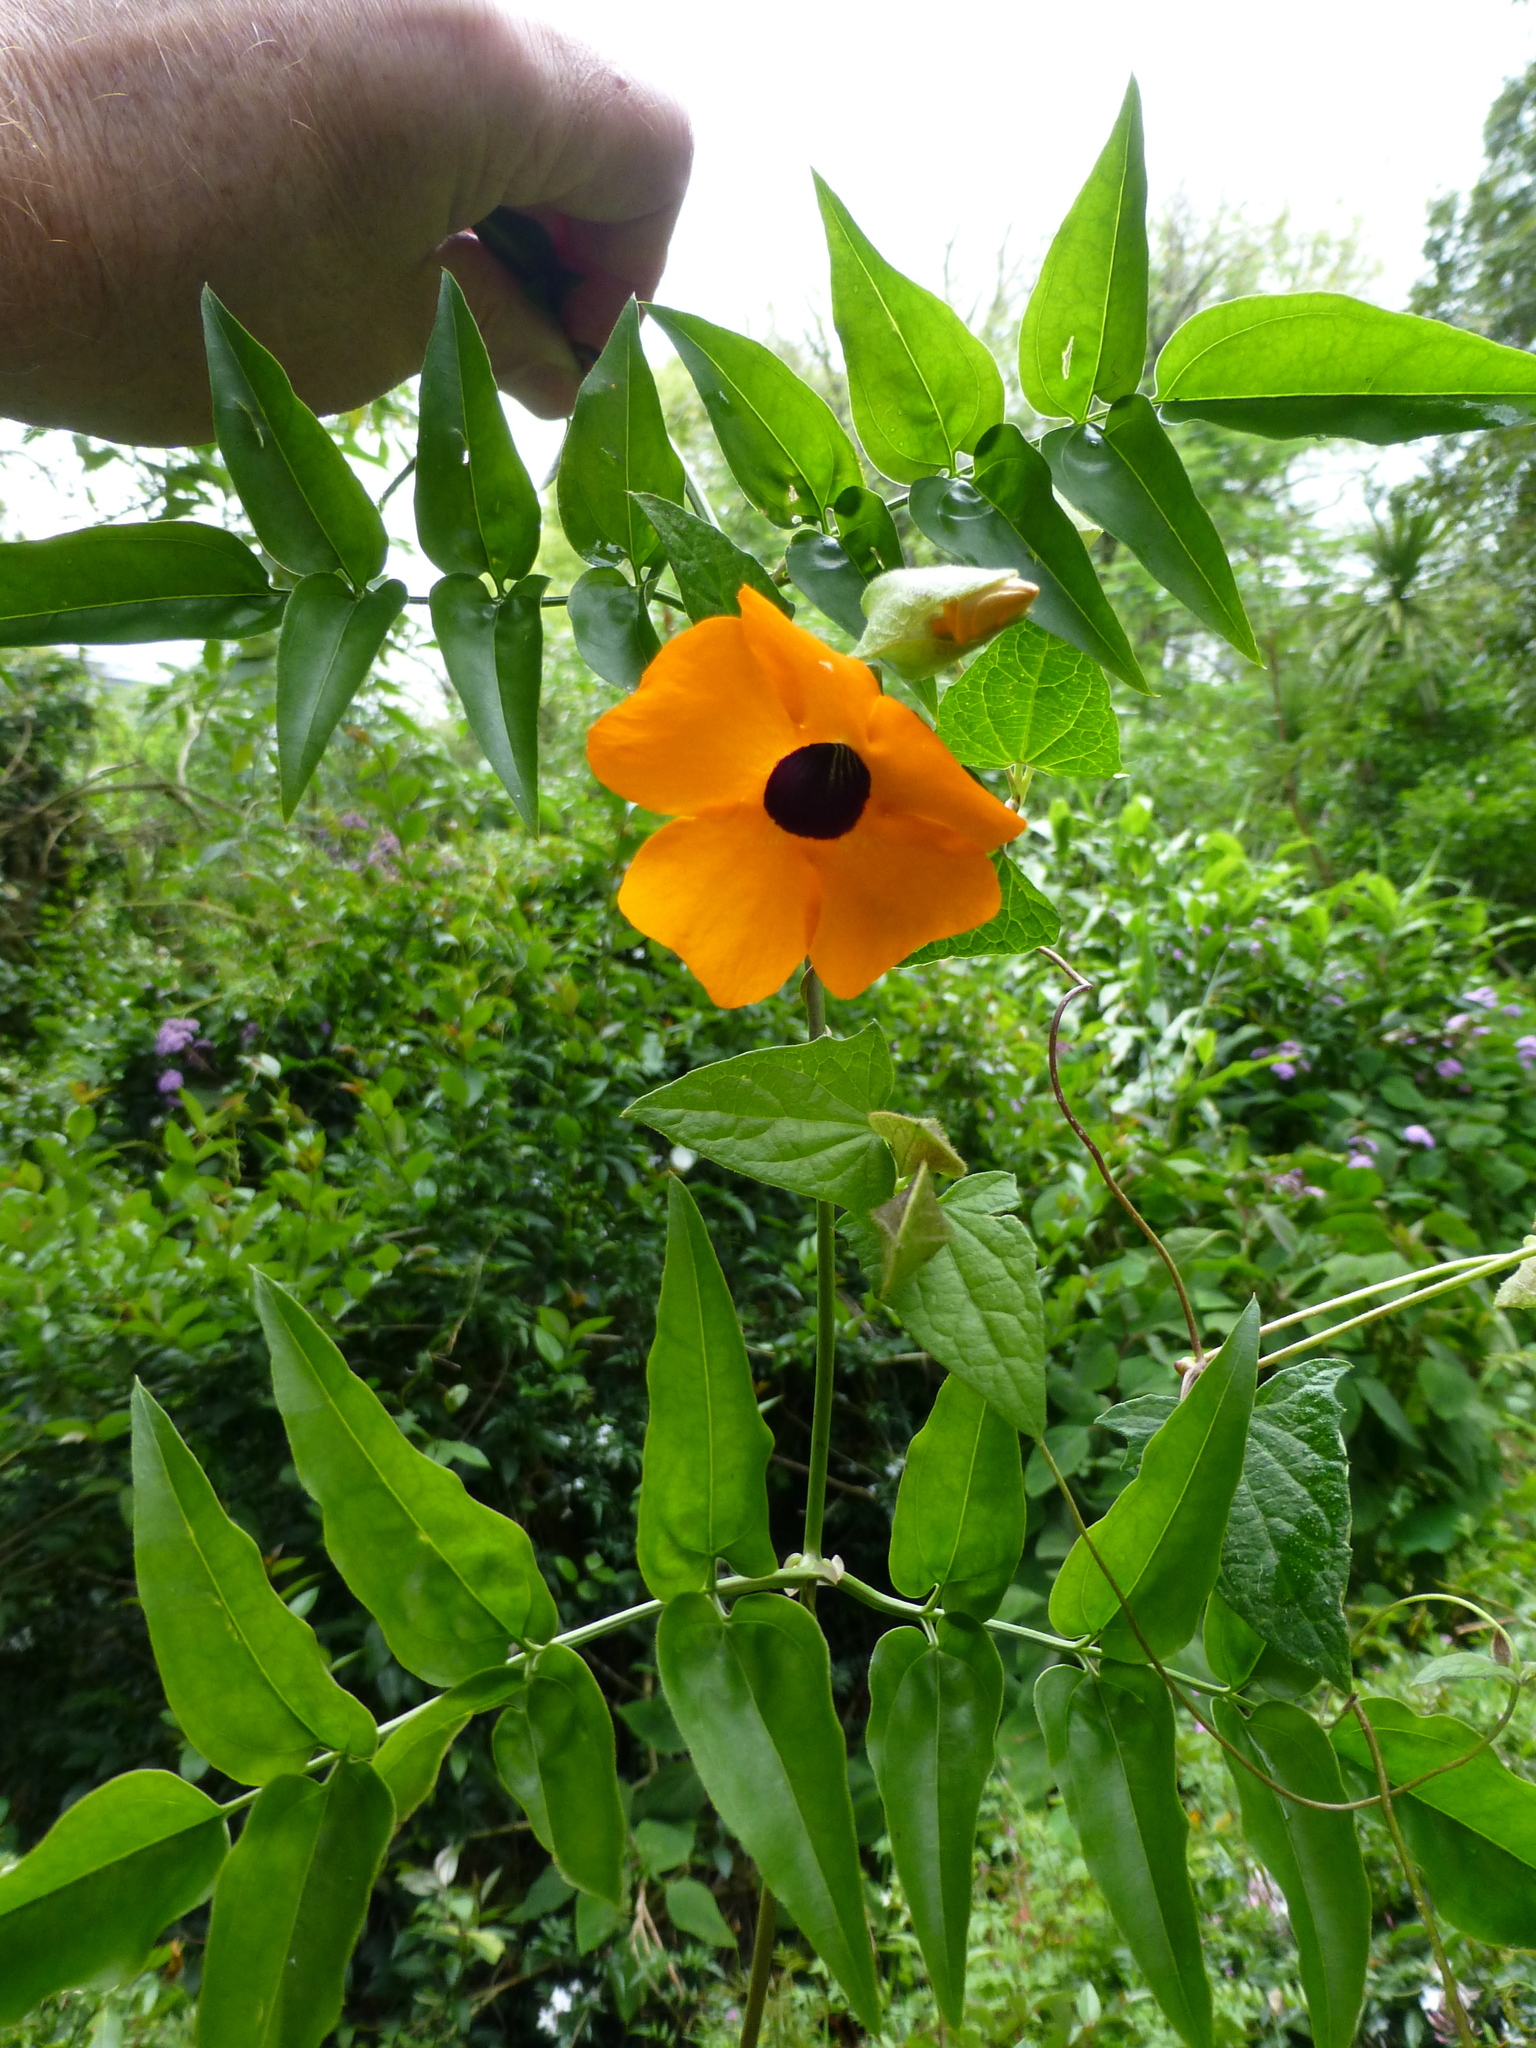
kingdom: Plantae
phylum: Tracheophyta
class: Magnoliopsida
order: Lamiales
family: Acanthaceae
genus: Thunbergia
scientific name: Thunbergia alata
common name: Blackeyed susan vine
